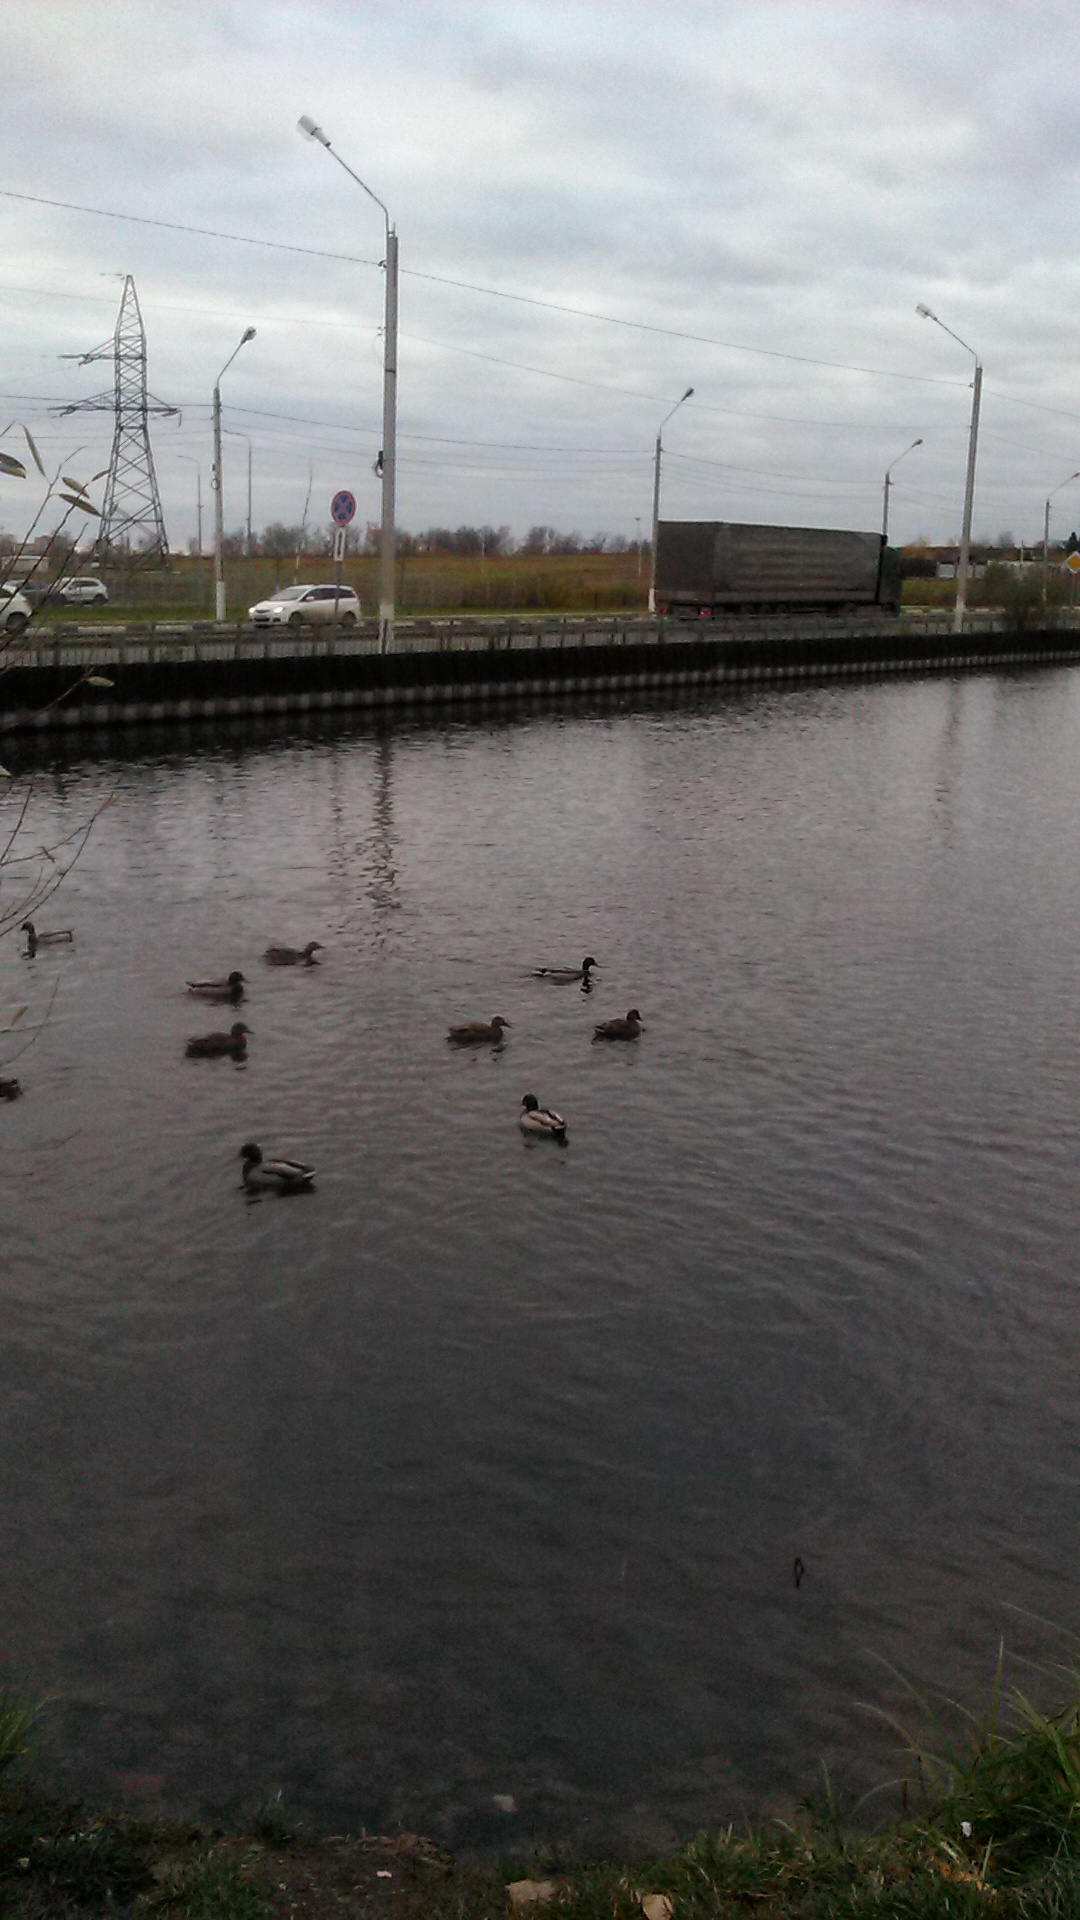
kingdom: Animalia
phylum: Chordata
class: Aves
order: Anseriformes
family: Anatidae
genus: Anas
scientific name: Anas platyrhynchos
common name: Mallard
